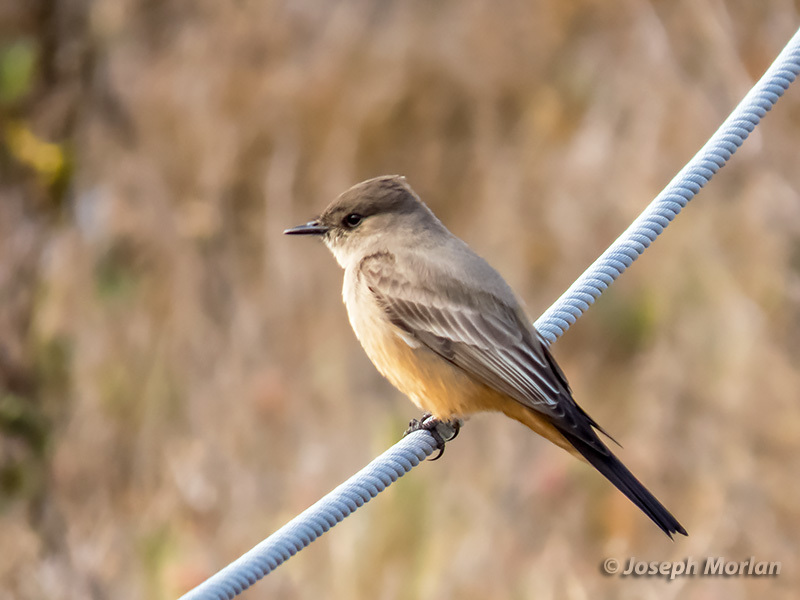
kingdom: Animalia
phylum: Chordata
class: Aves
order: Passeriformes
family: Tyrannidae
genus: Sayornis
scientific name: Sayornis saya
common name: Say's phoebe
